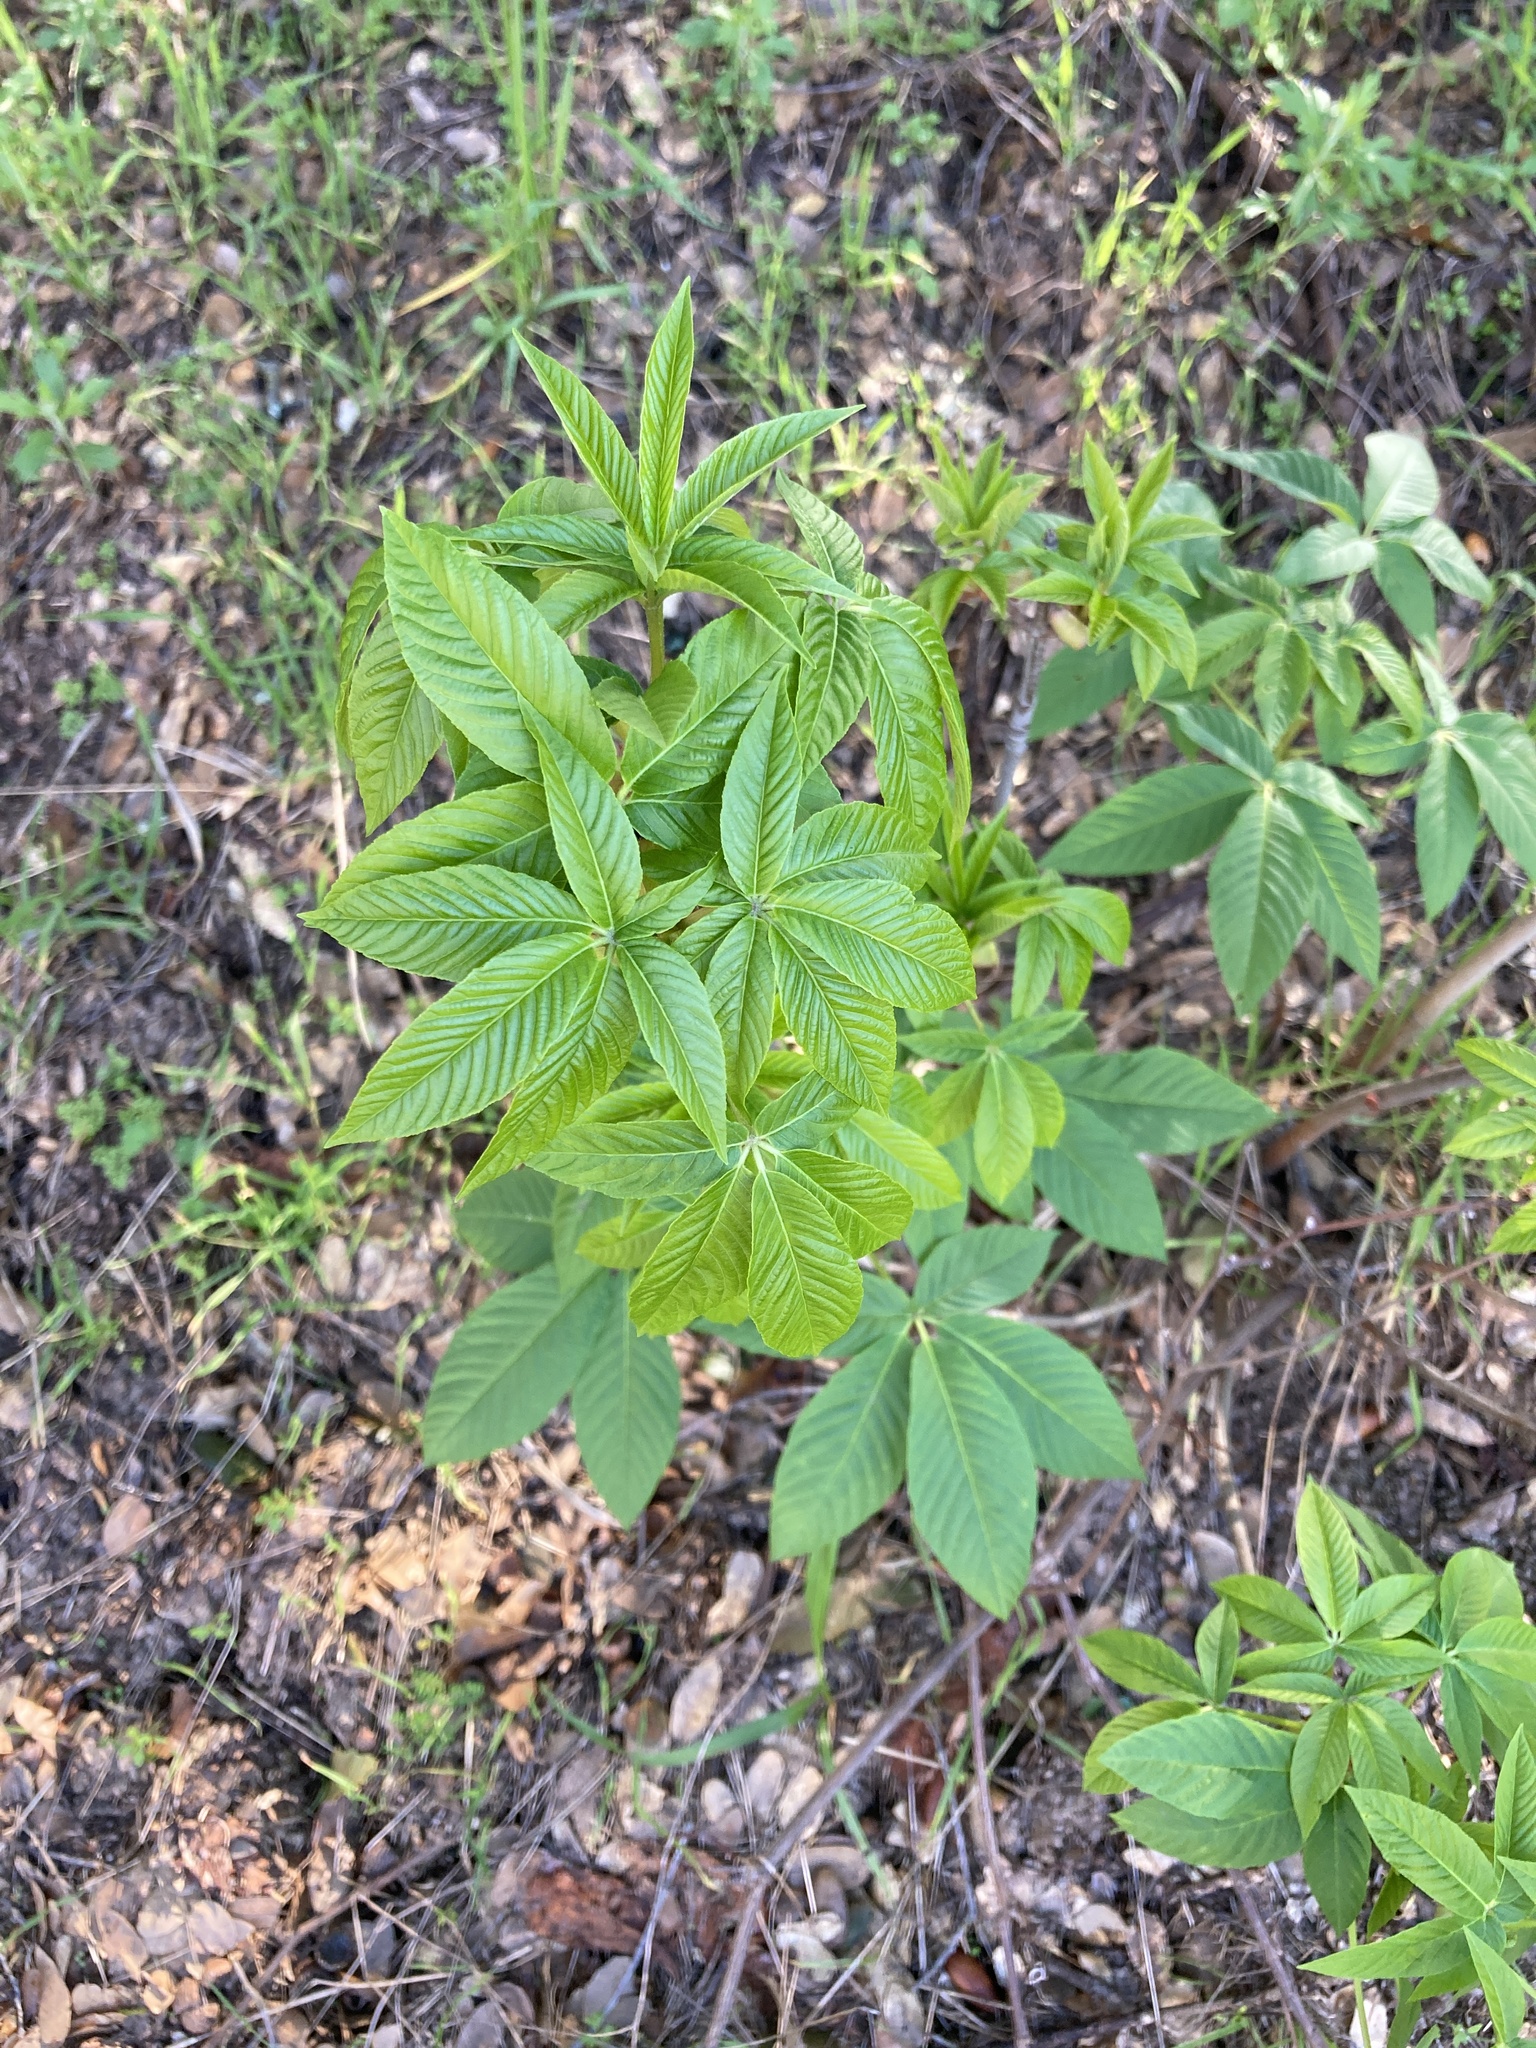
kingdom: Plantae
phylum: Tracheophyta
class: Magnoliopsida
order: Sapindales
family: Sapindaceae
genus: Aesculus
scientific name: Aesculus californica
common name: California buckeye
